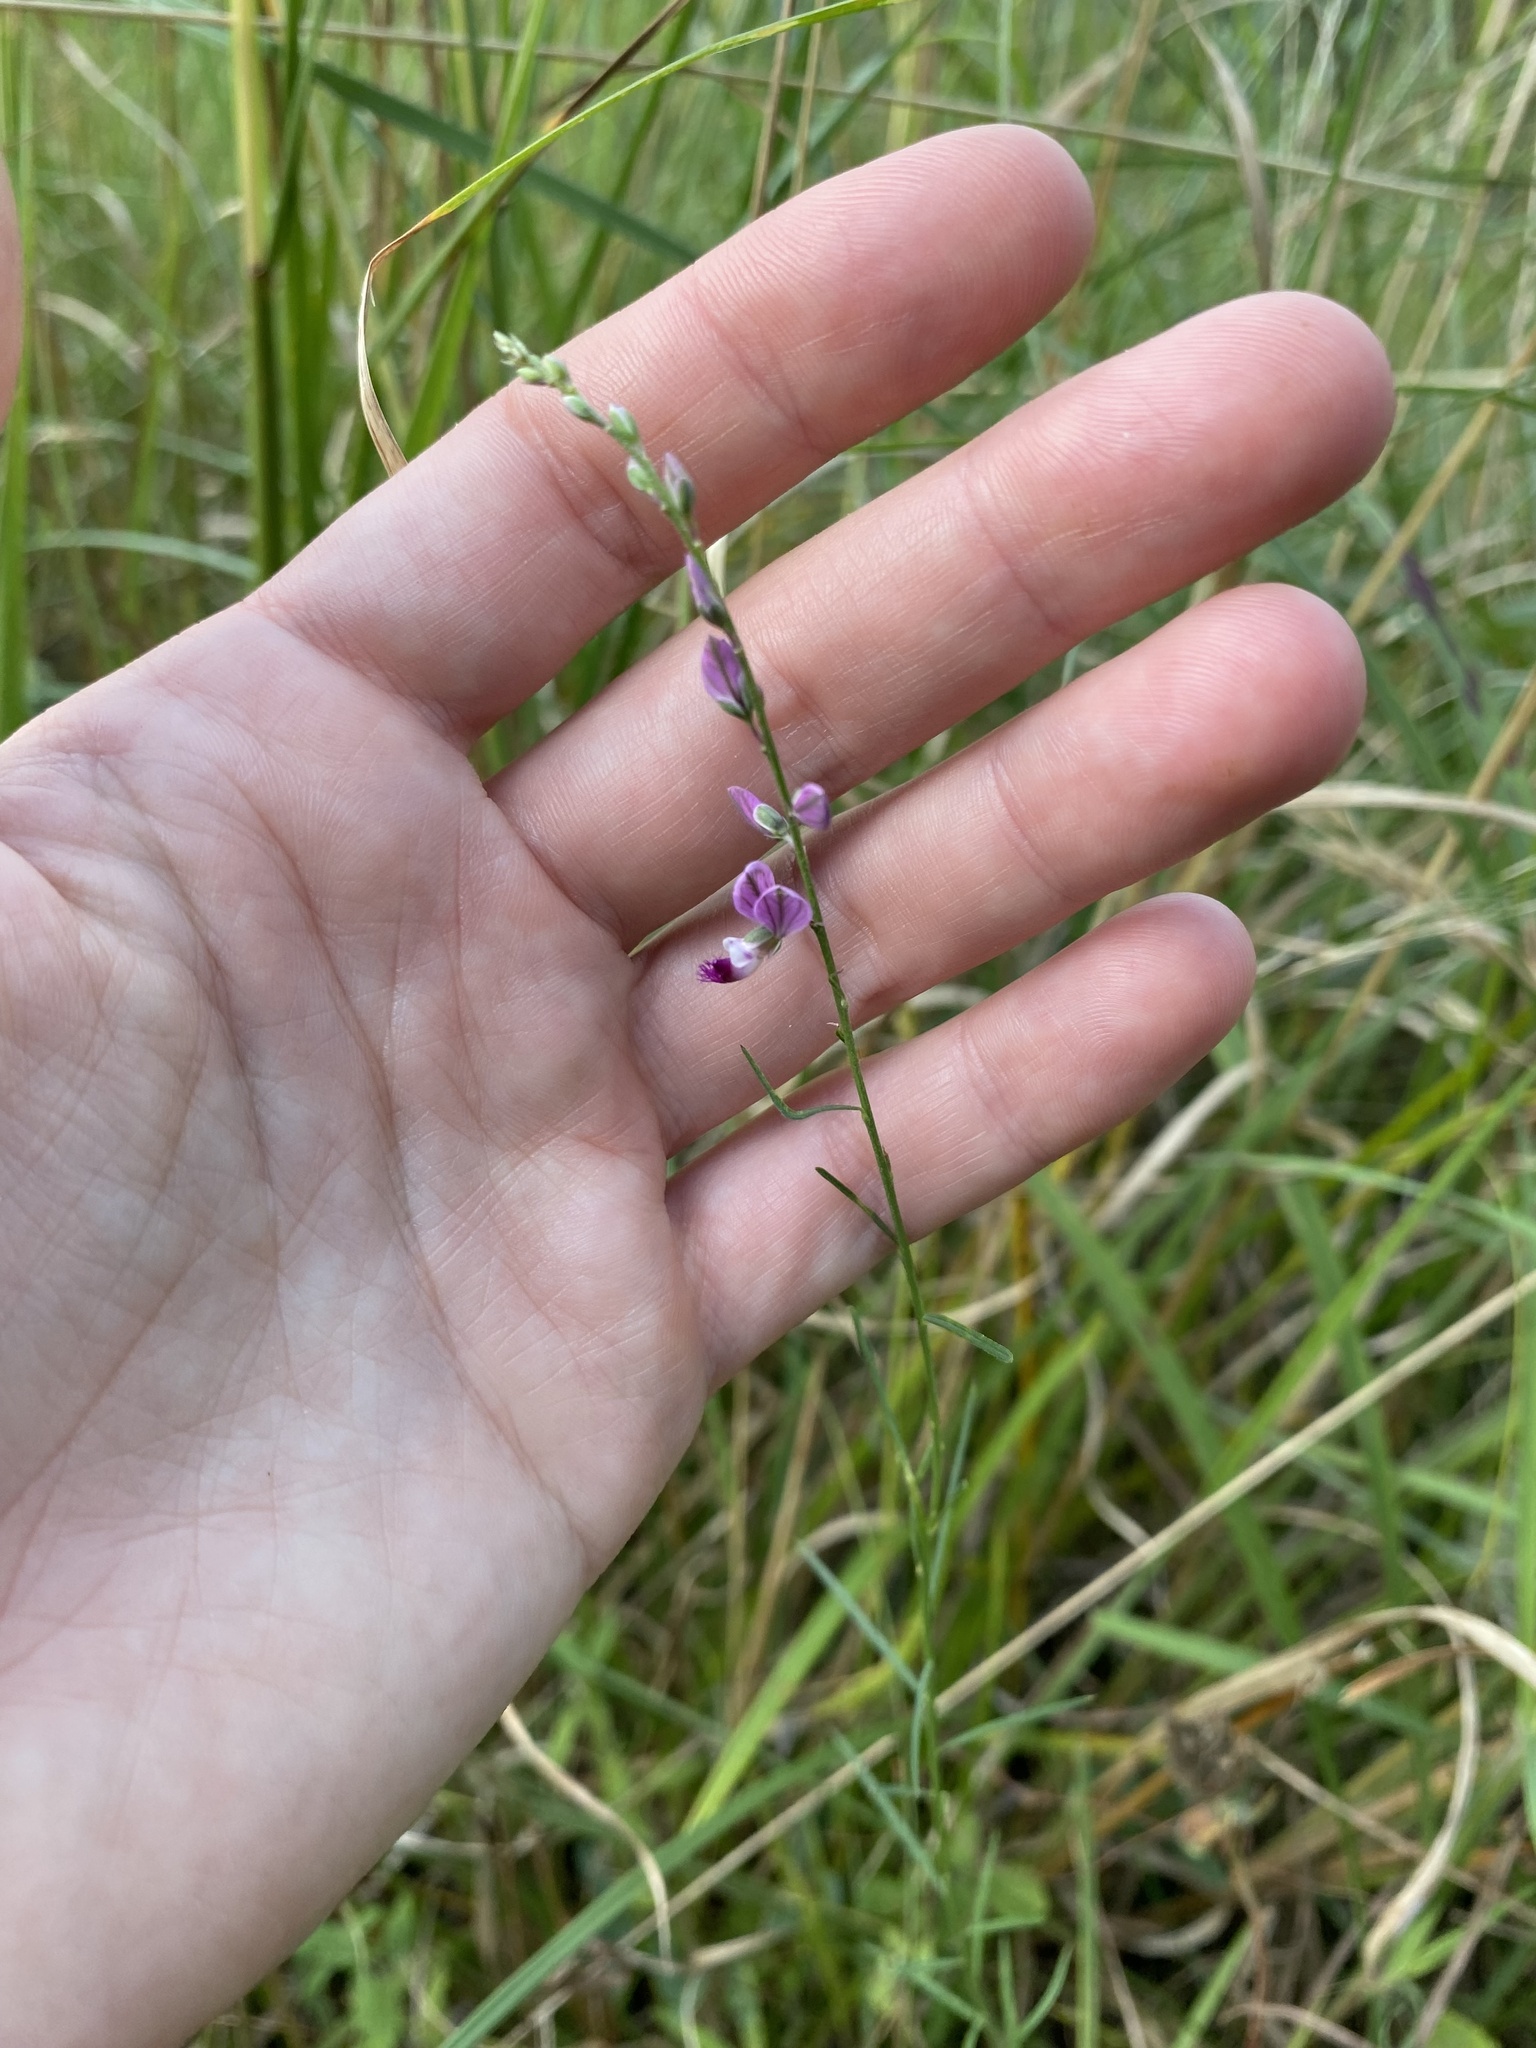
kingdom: Plantae
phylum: Tracheophyta
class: Magnoliopsida
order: Fabales
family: Polygalaceae
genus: Polygala
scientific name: Polygala hottentotta
